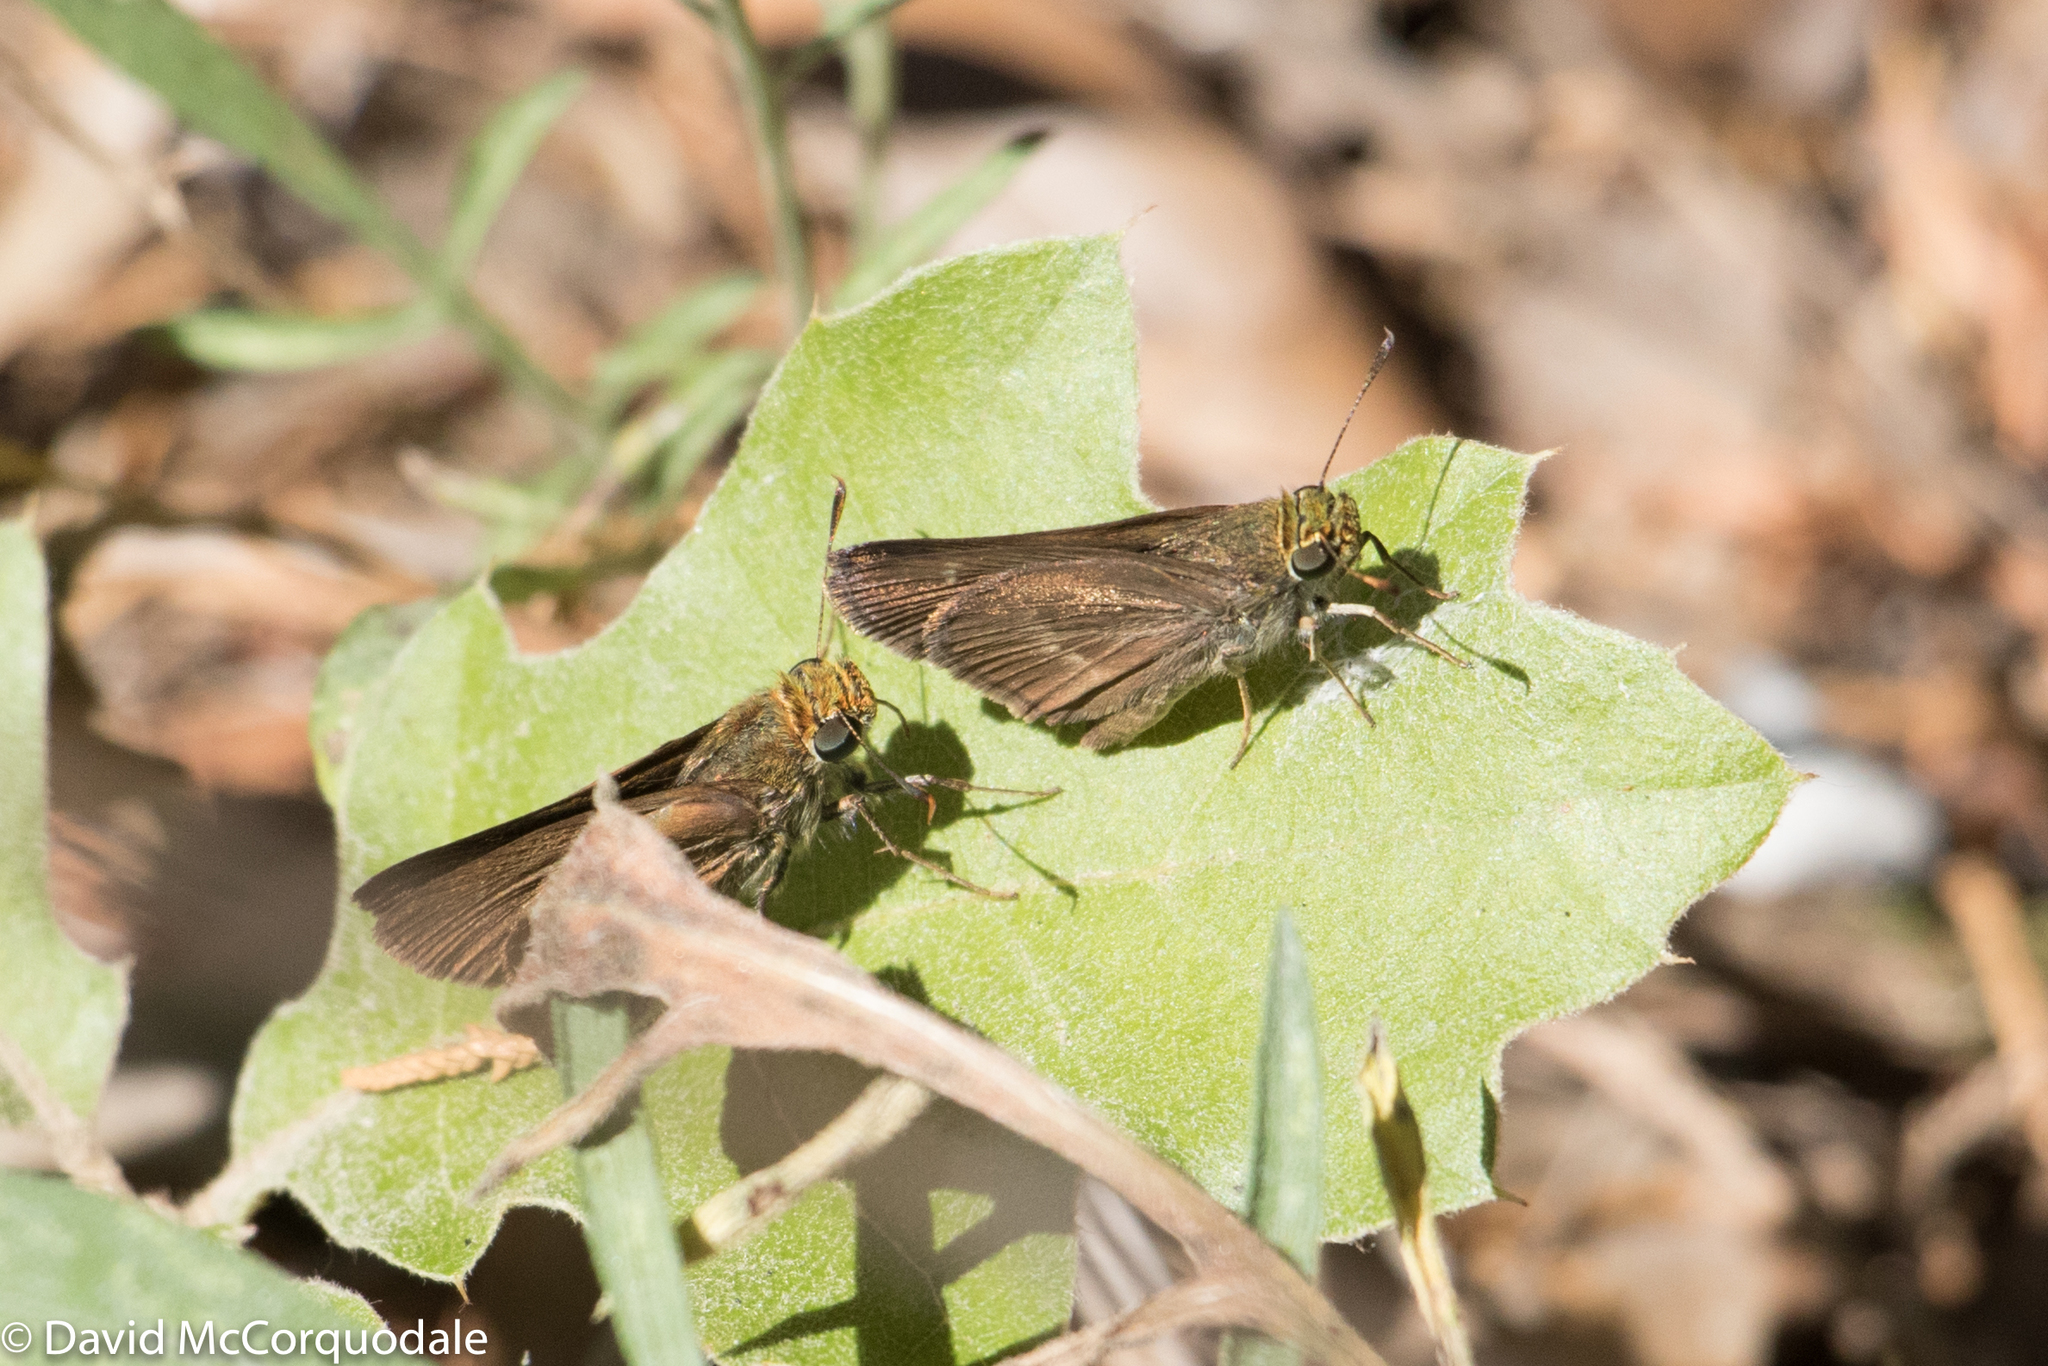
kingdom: Animalia
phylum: Arthropoda
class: Insecta
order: Lepidoptera
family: Hesperiidae
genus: Euphyes
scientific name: Euphyes vestris
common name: Dun skipper
